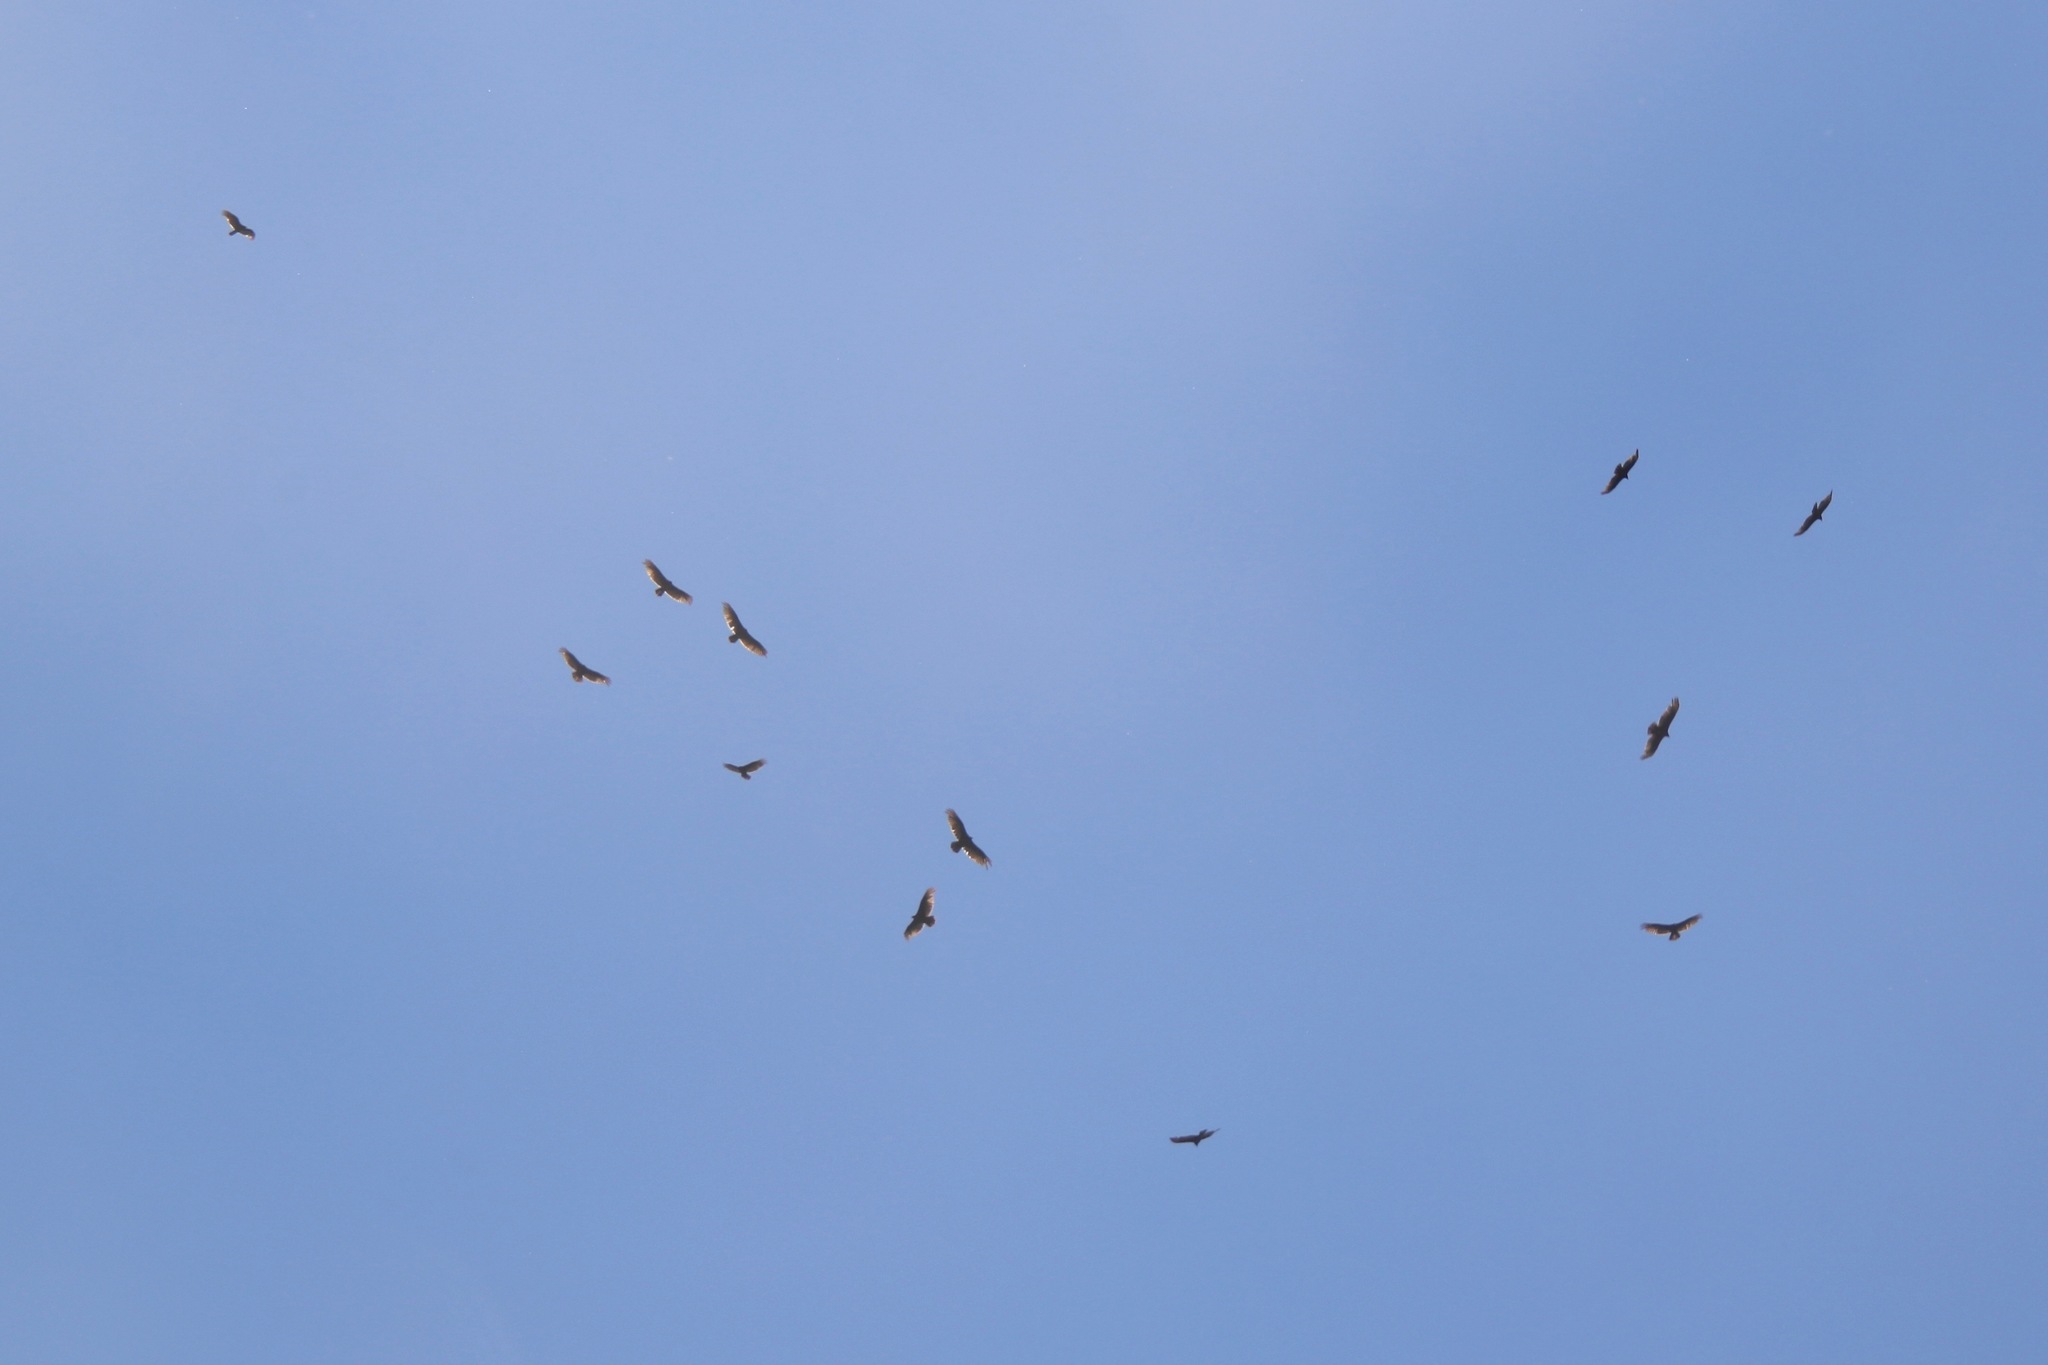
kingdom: Animalia
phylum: Chordata
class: Aves
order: Accipitriformes
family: Cathartidae
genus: Cathartes
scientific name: Cathartes aura
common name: Turkey vulture
